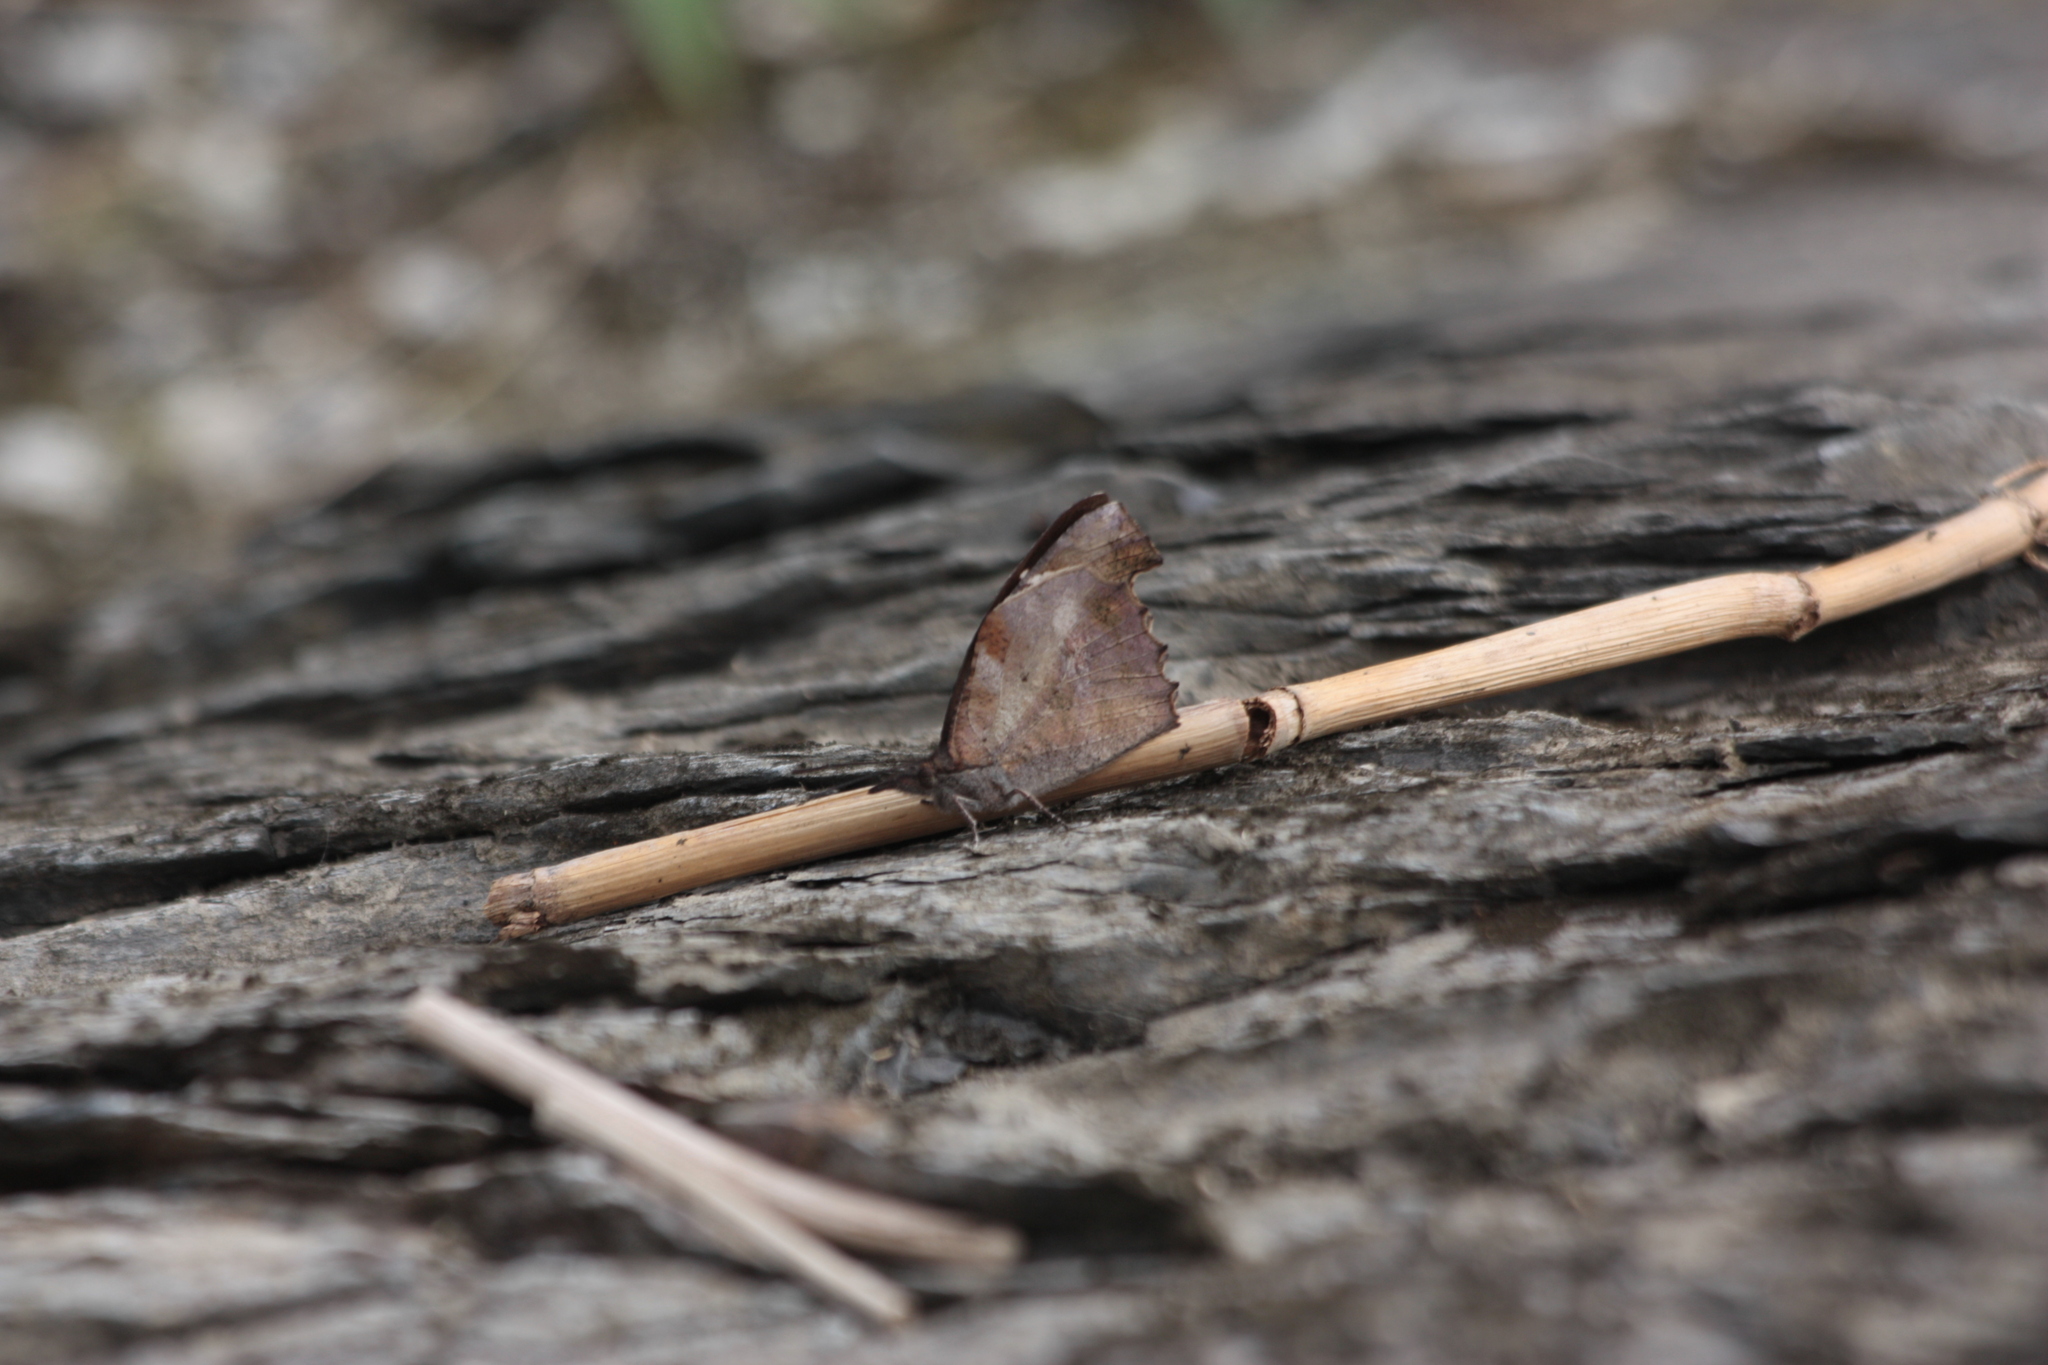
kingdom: Animalia
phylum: Arthropoda
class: Insecta
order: Lepidoptera
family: Nymphalidae
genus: Libythea
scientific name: Libythea lepita
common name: Common beak
